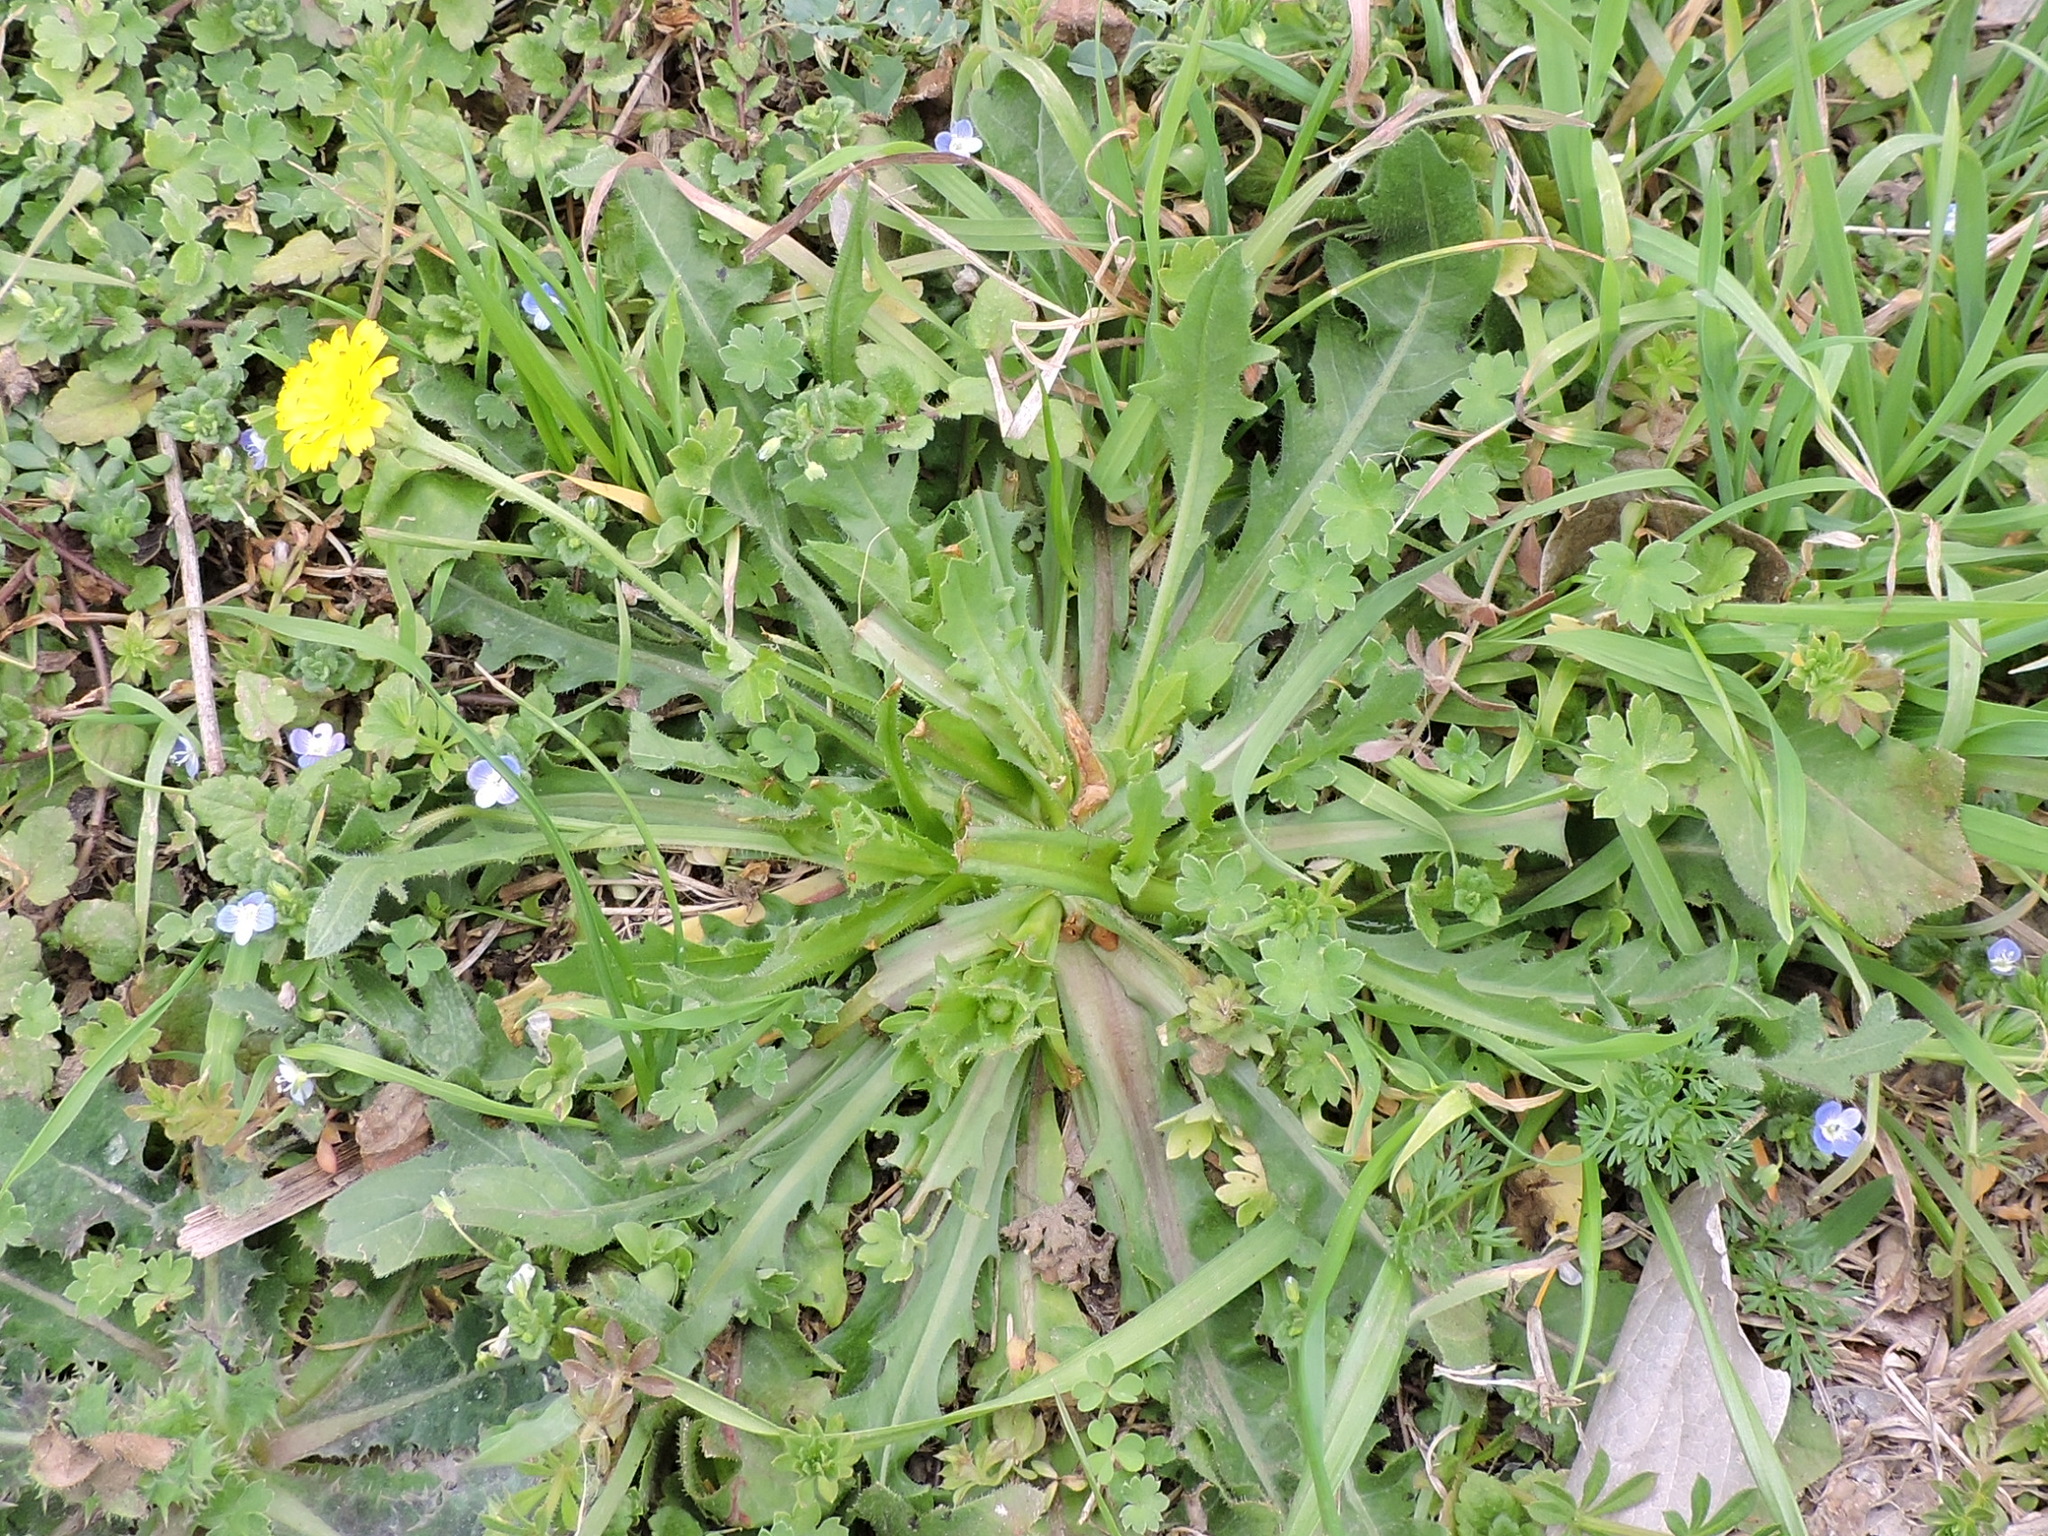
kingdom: Plantae
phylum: Tracheophyta
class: Magnoliopsida
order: Asterales
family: Asteraceae
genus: Hedypnois
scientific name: Hedypnois rhagadioloides
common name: Cretan weed
